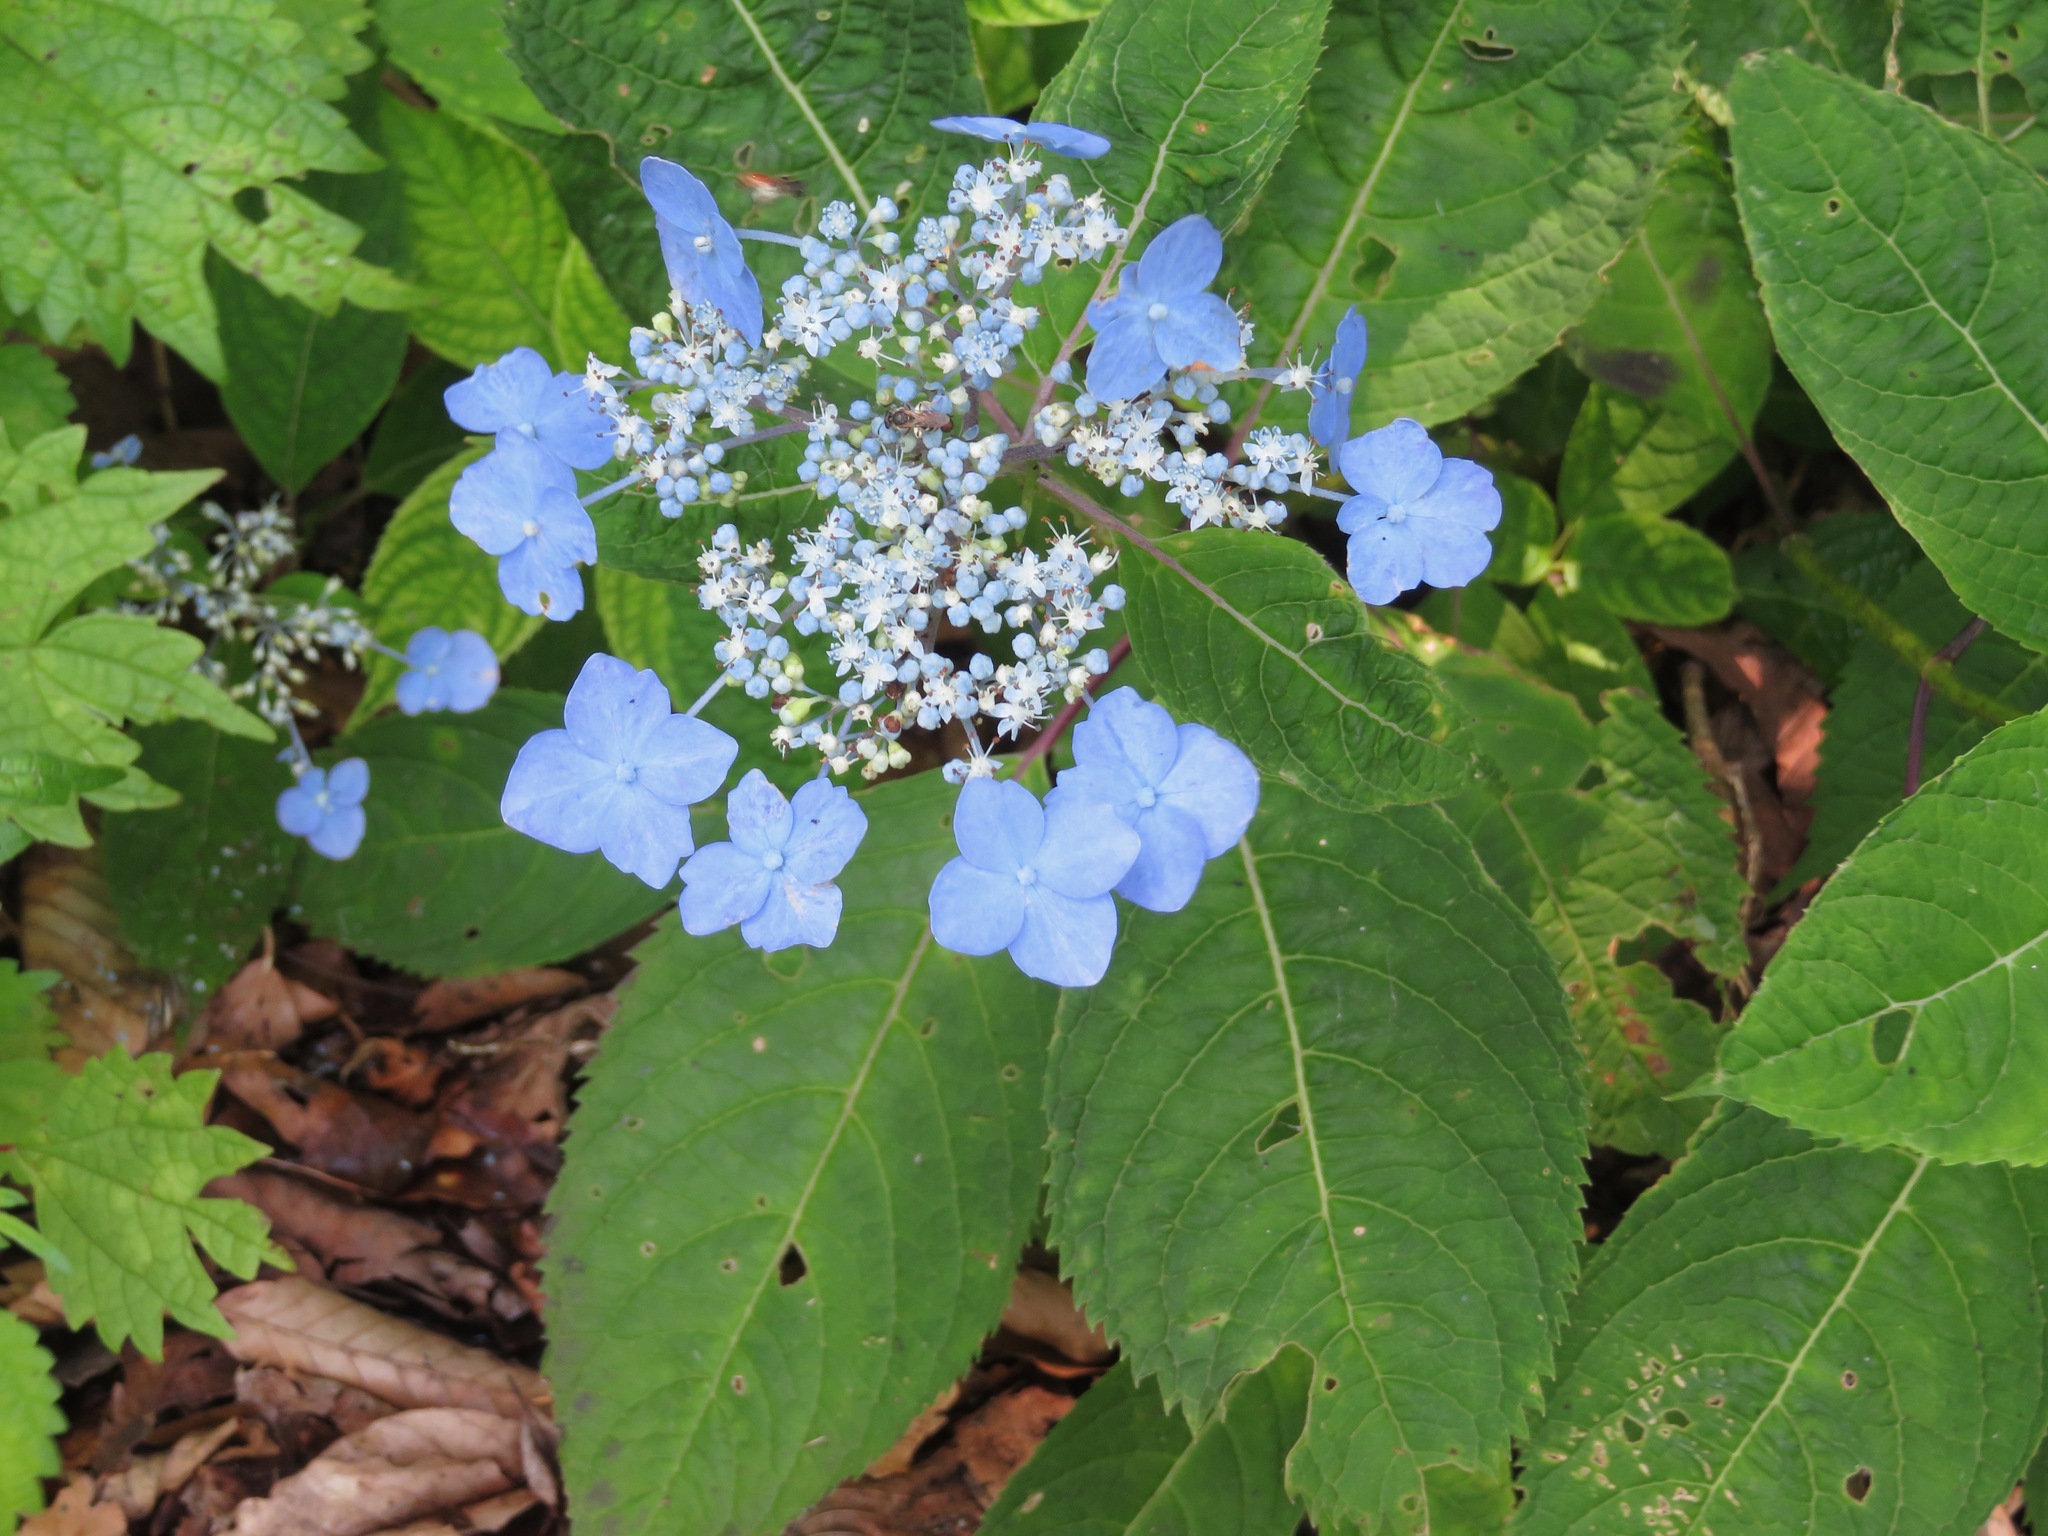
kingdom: Plantae
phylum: Tracheophyta
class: Magnoliopsida
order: Cornales
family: Hydrangeaceae
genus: Hydrangea
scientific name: Hydrangea serrata
